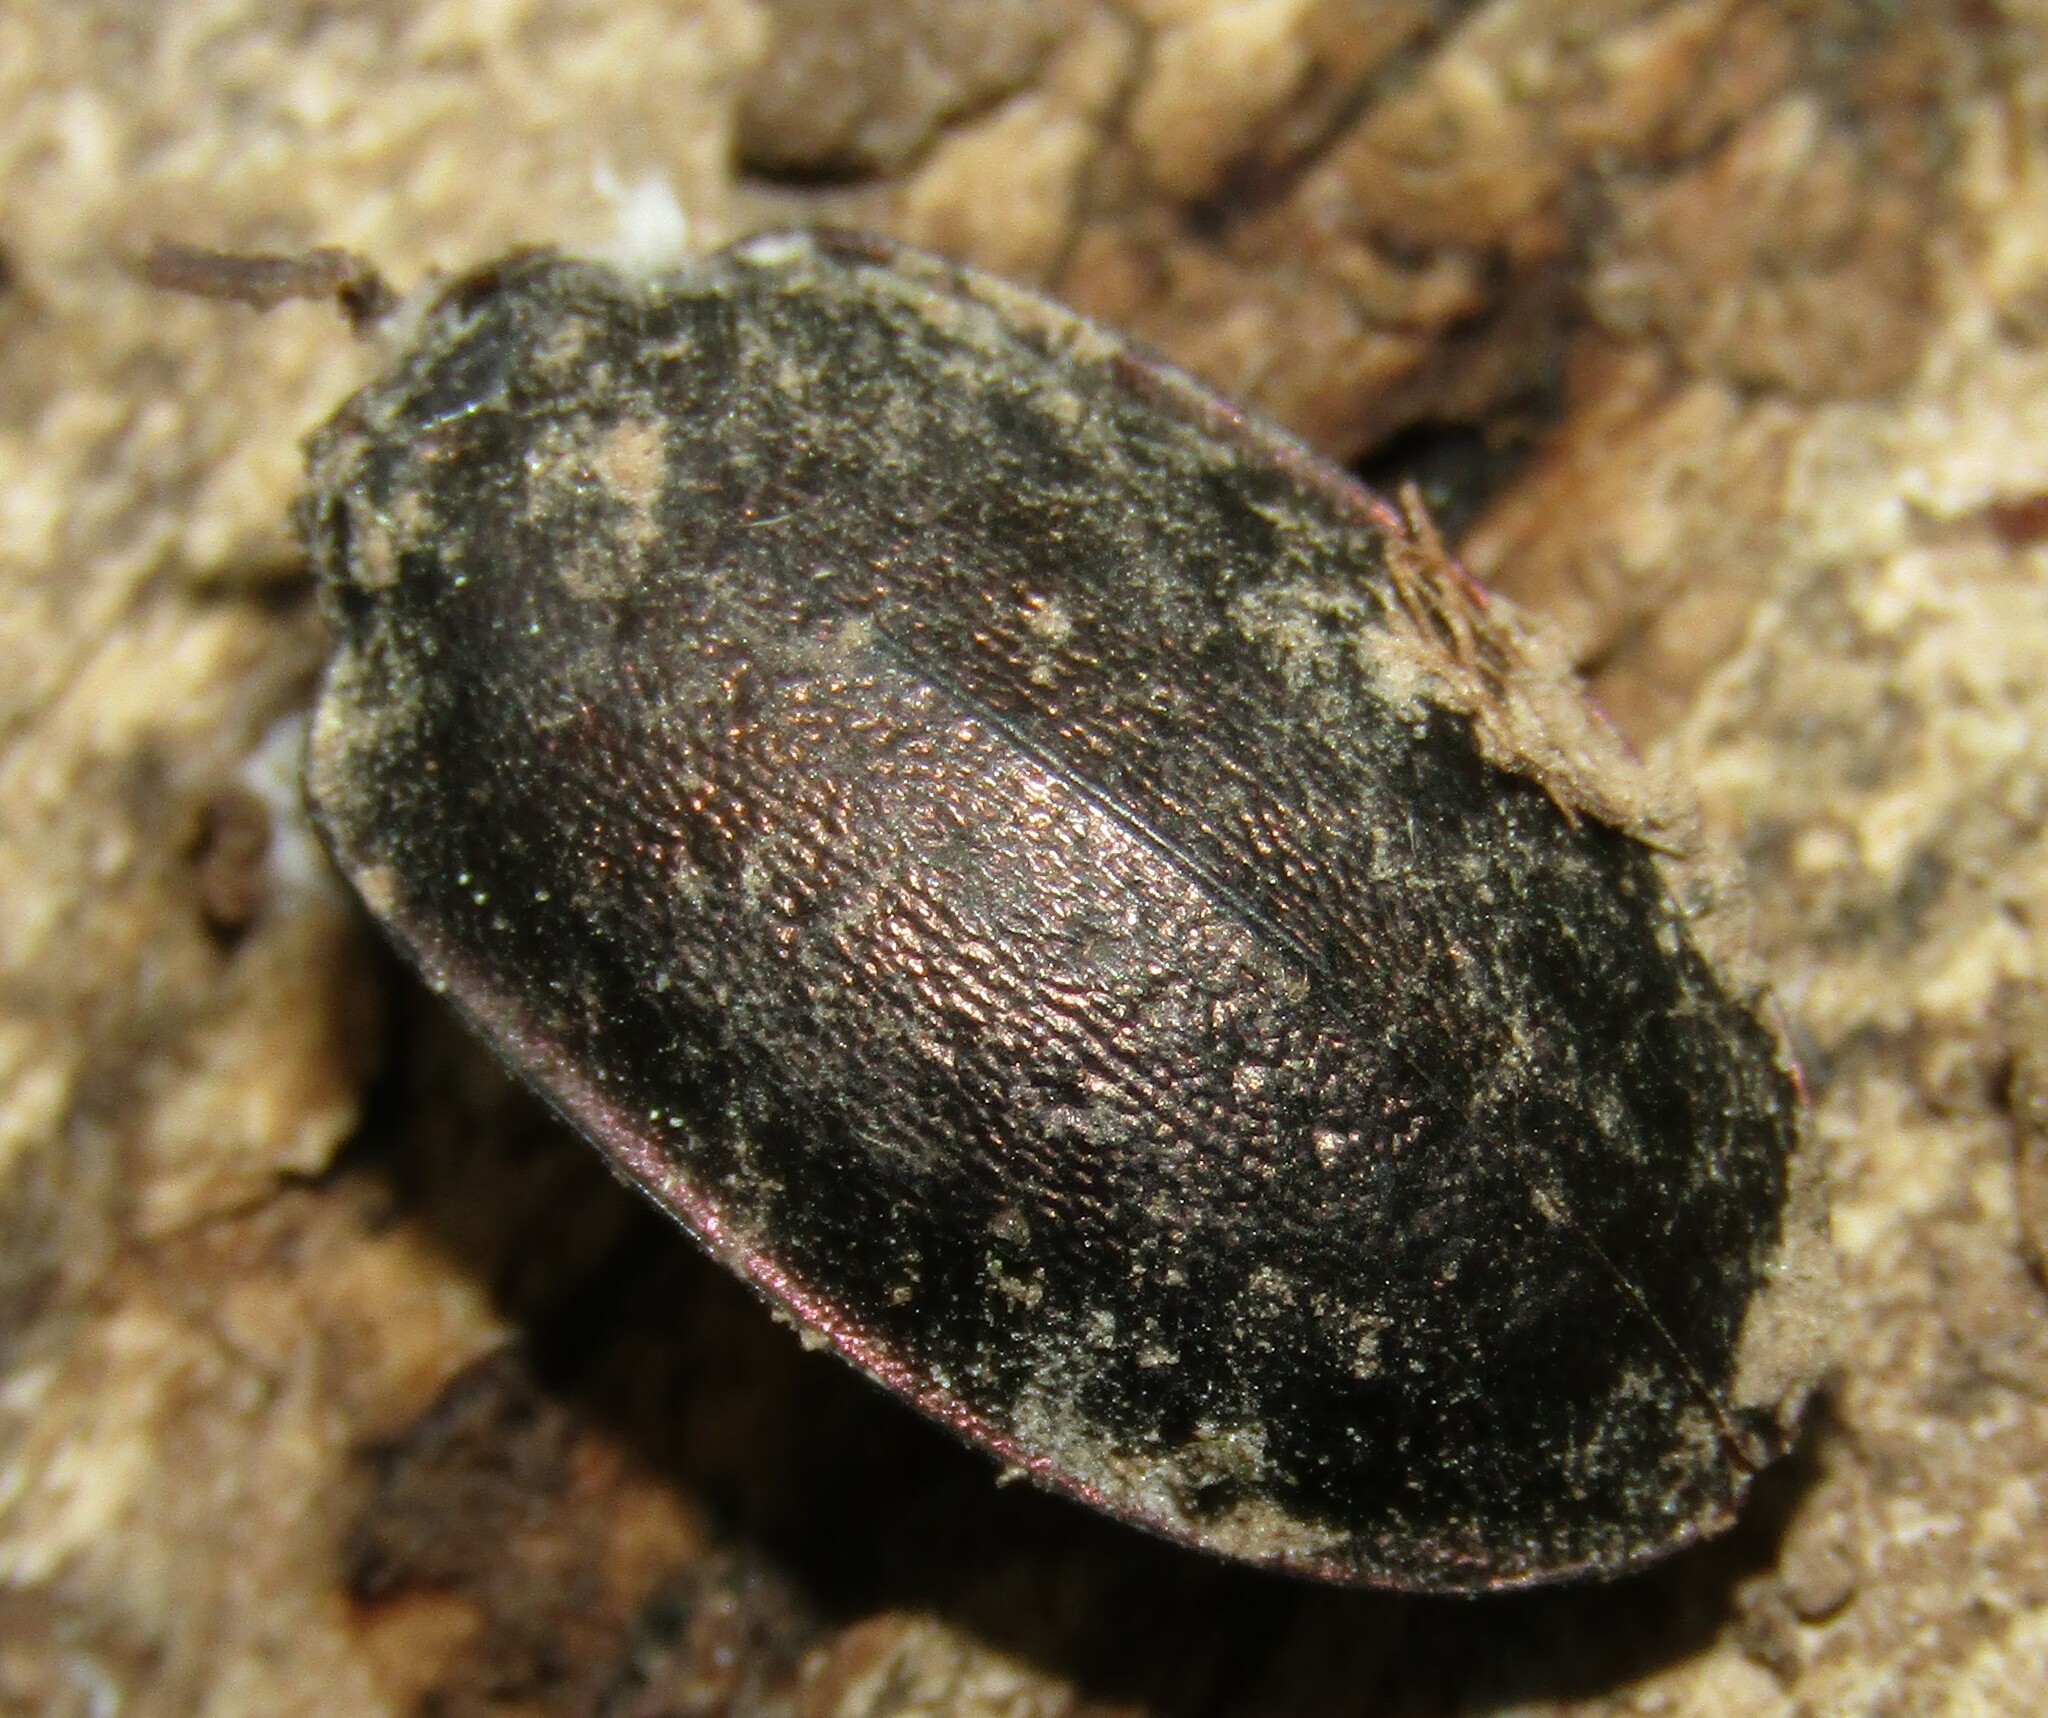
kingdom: Animalia
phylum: Arthropoda
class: Insecta
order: Coleoptera
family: Carabidae
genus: Carabus
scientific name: Carabus nemoralis
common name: European ground beetle
